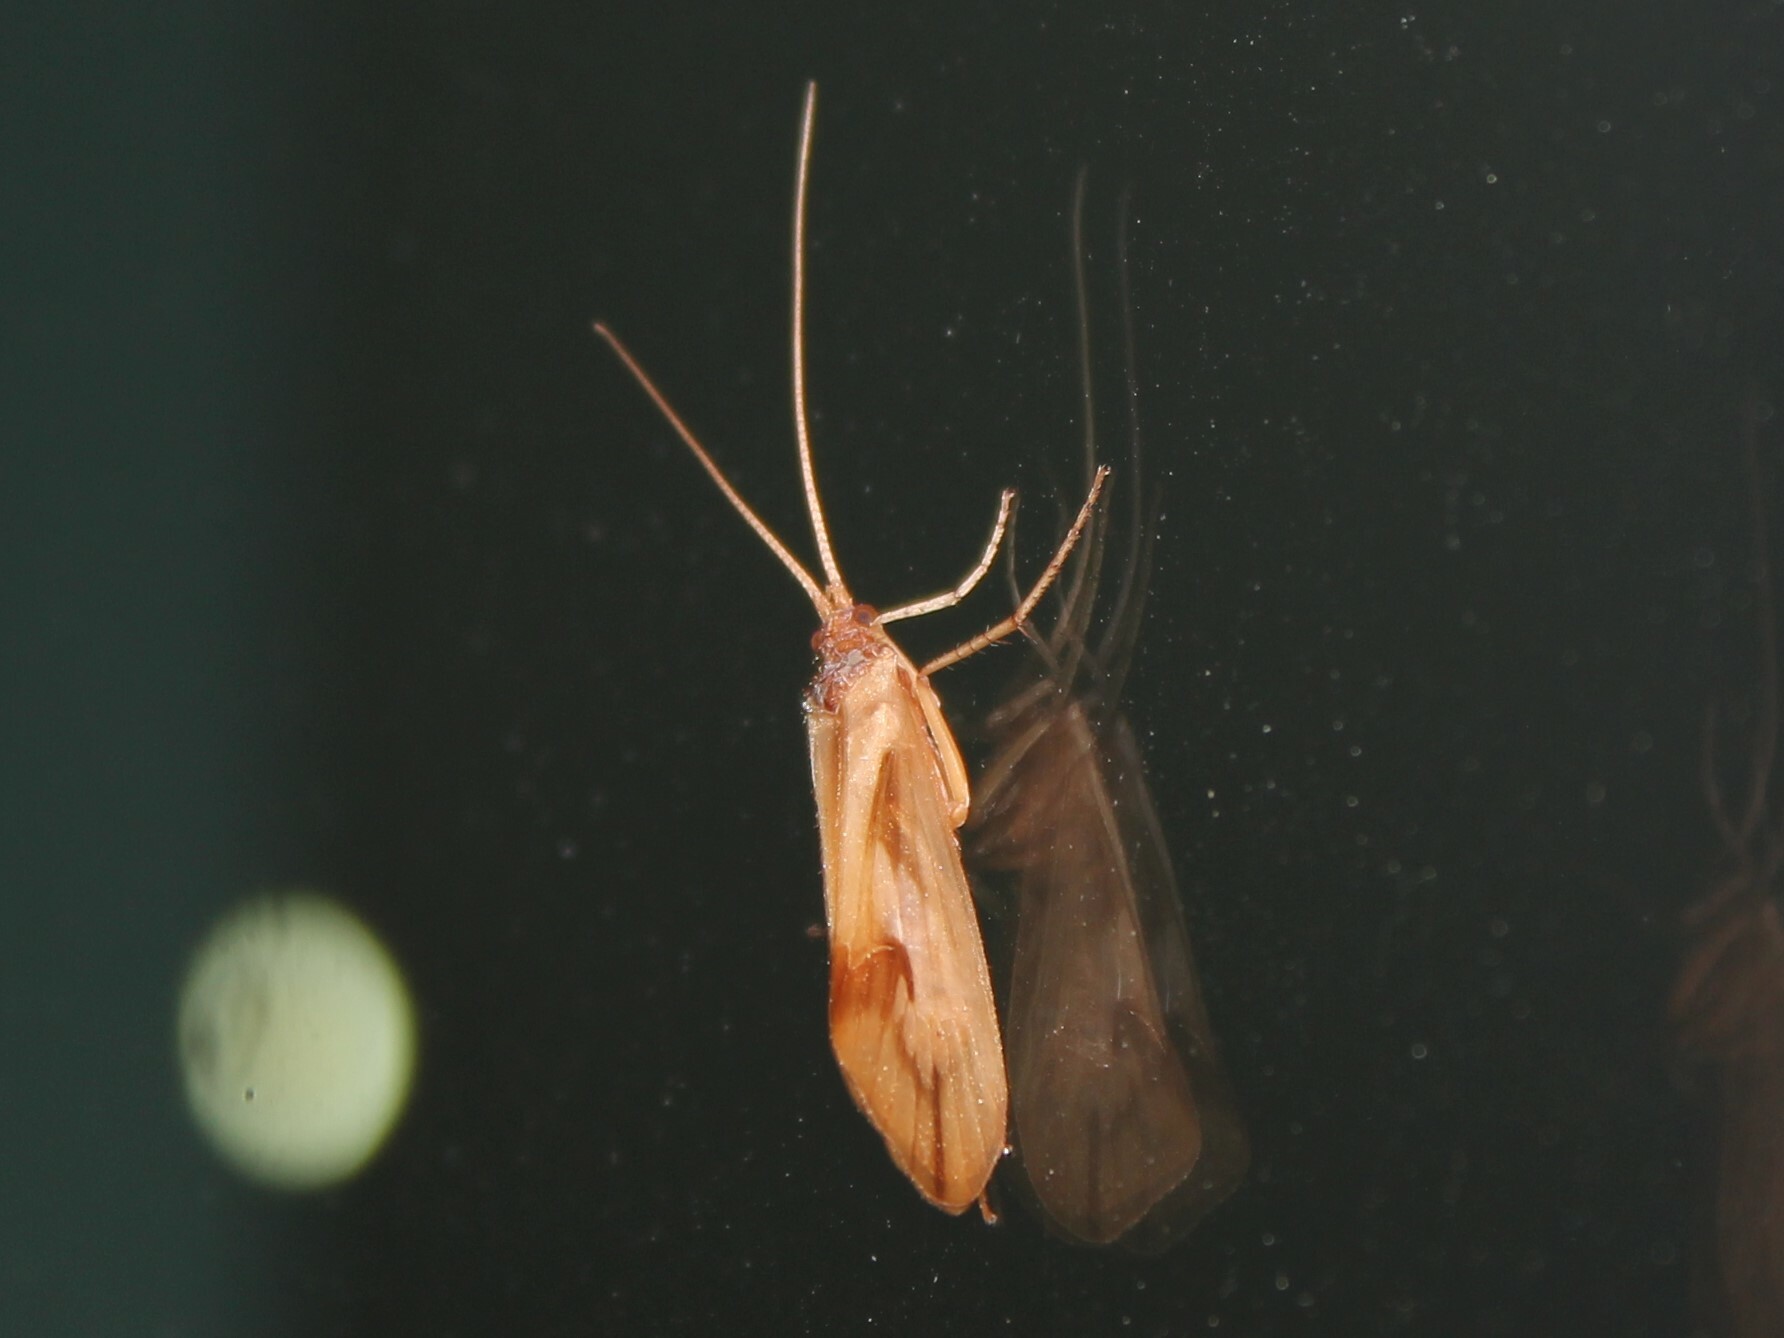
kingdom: Animalia
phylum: Arthropoda
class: Insecta
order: Trichoptera
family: Limnephilidae
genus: Platycentropus
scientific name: Platycentropus radiatus
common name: Chocolate-and-cream sedge
